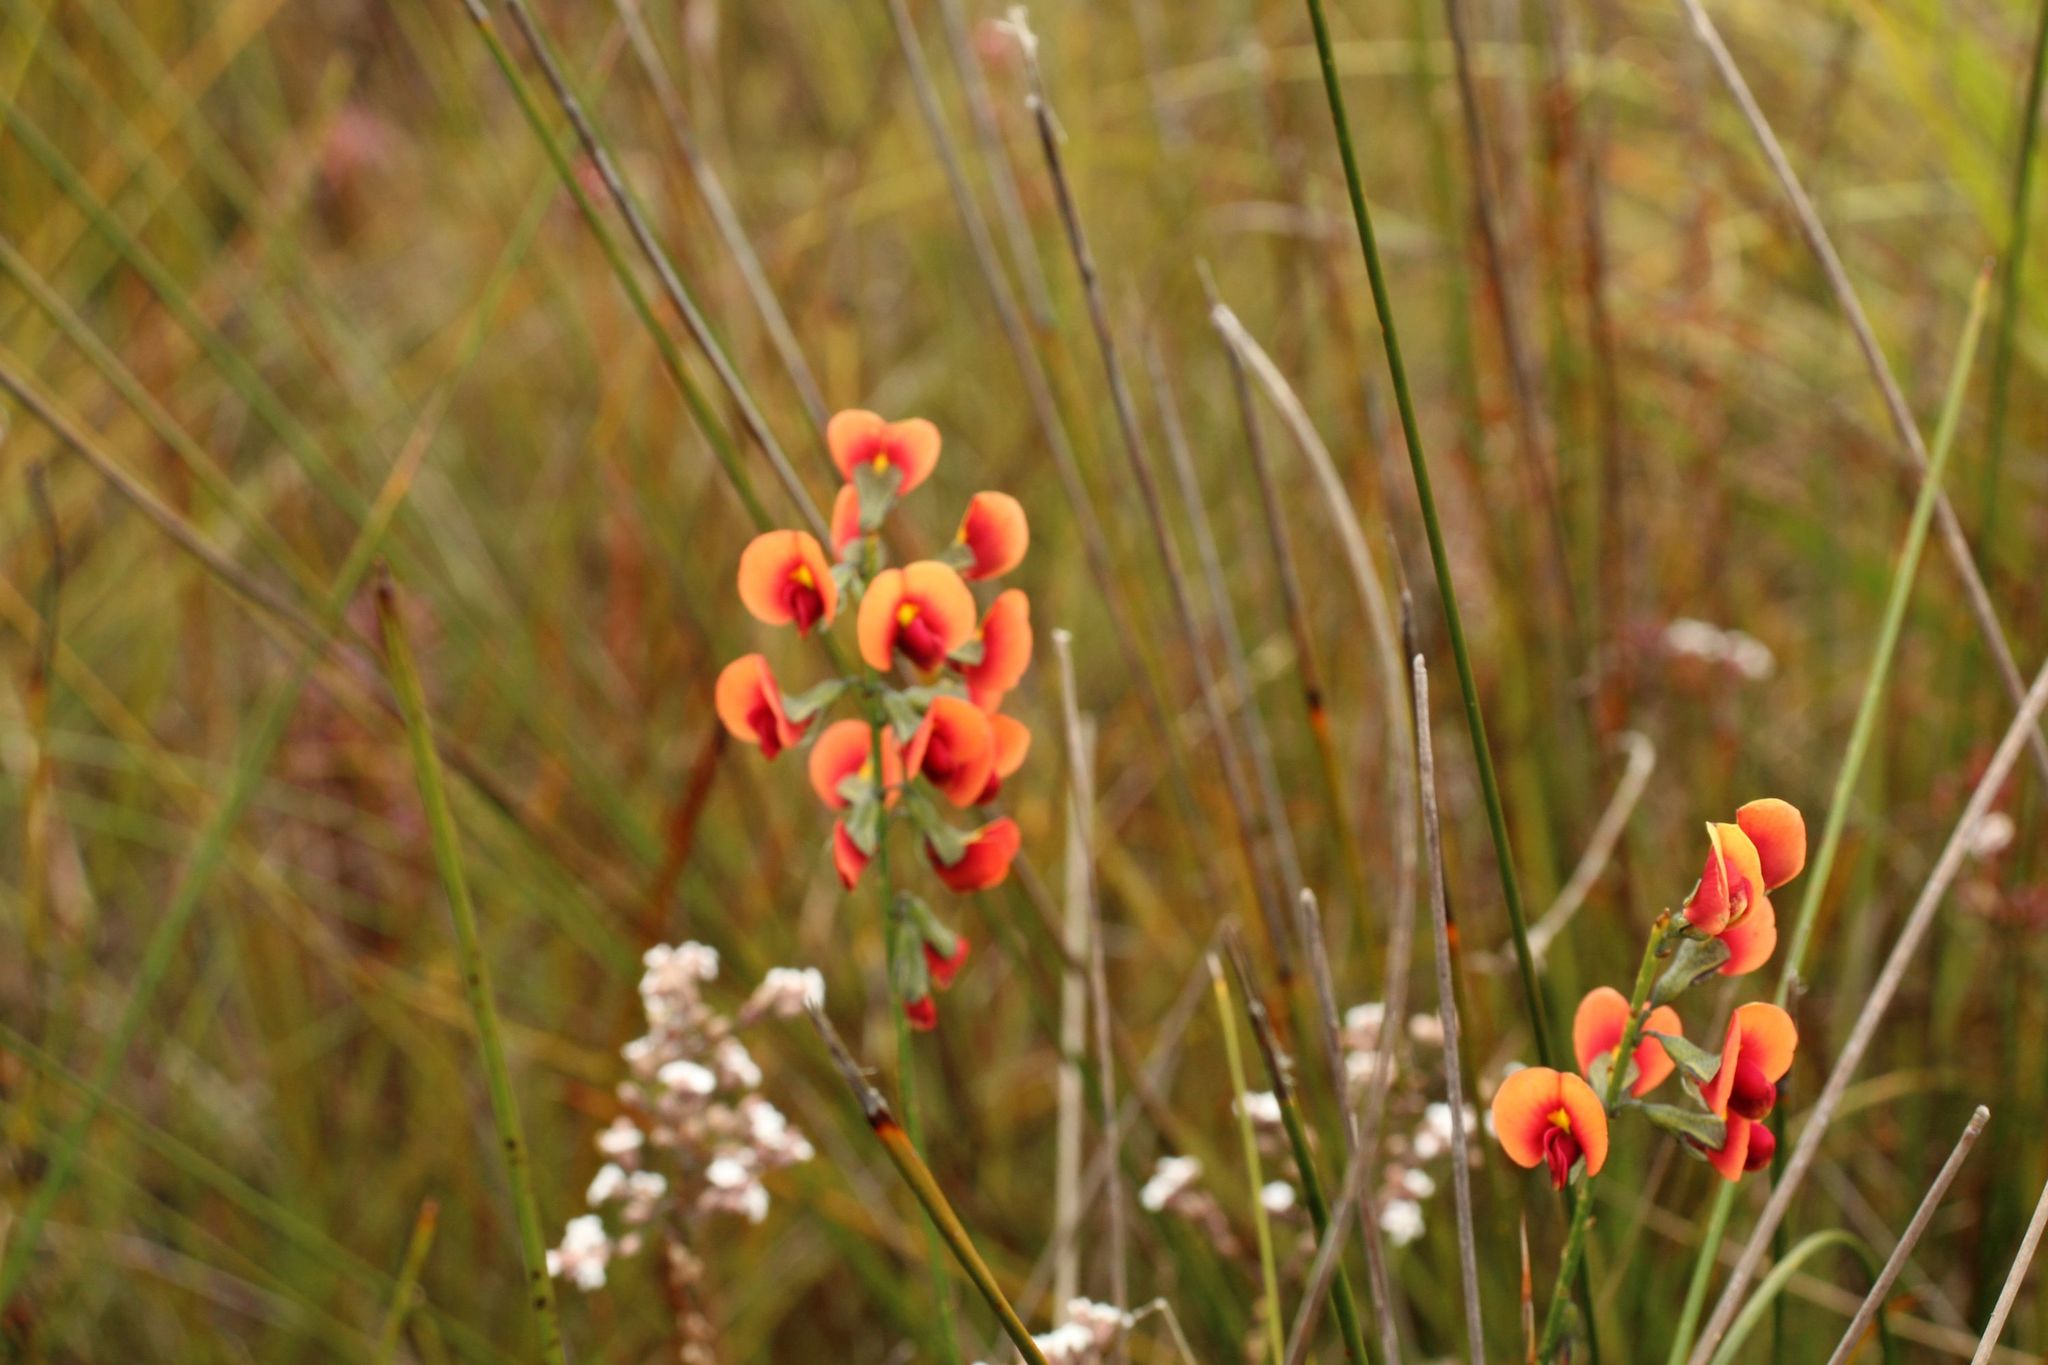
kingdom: Plantae
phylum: Tracheophyta
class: Magnoliopsida
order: Fabales
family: Fabaceae
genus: Sphaerolobium
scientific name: Sphaerolobium hygrophilum
